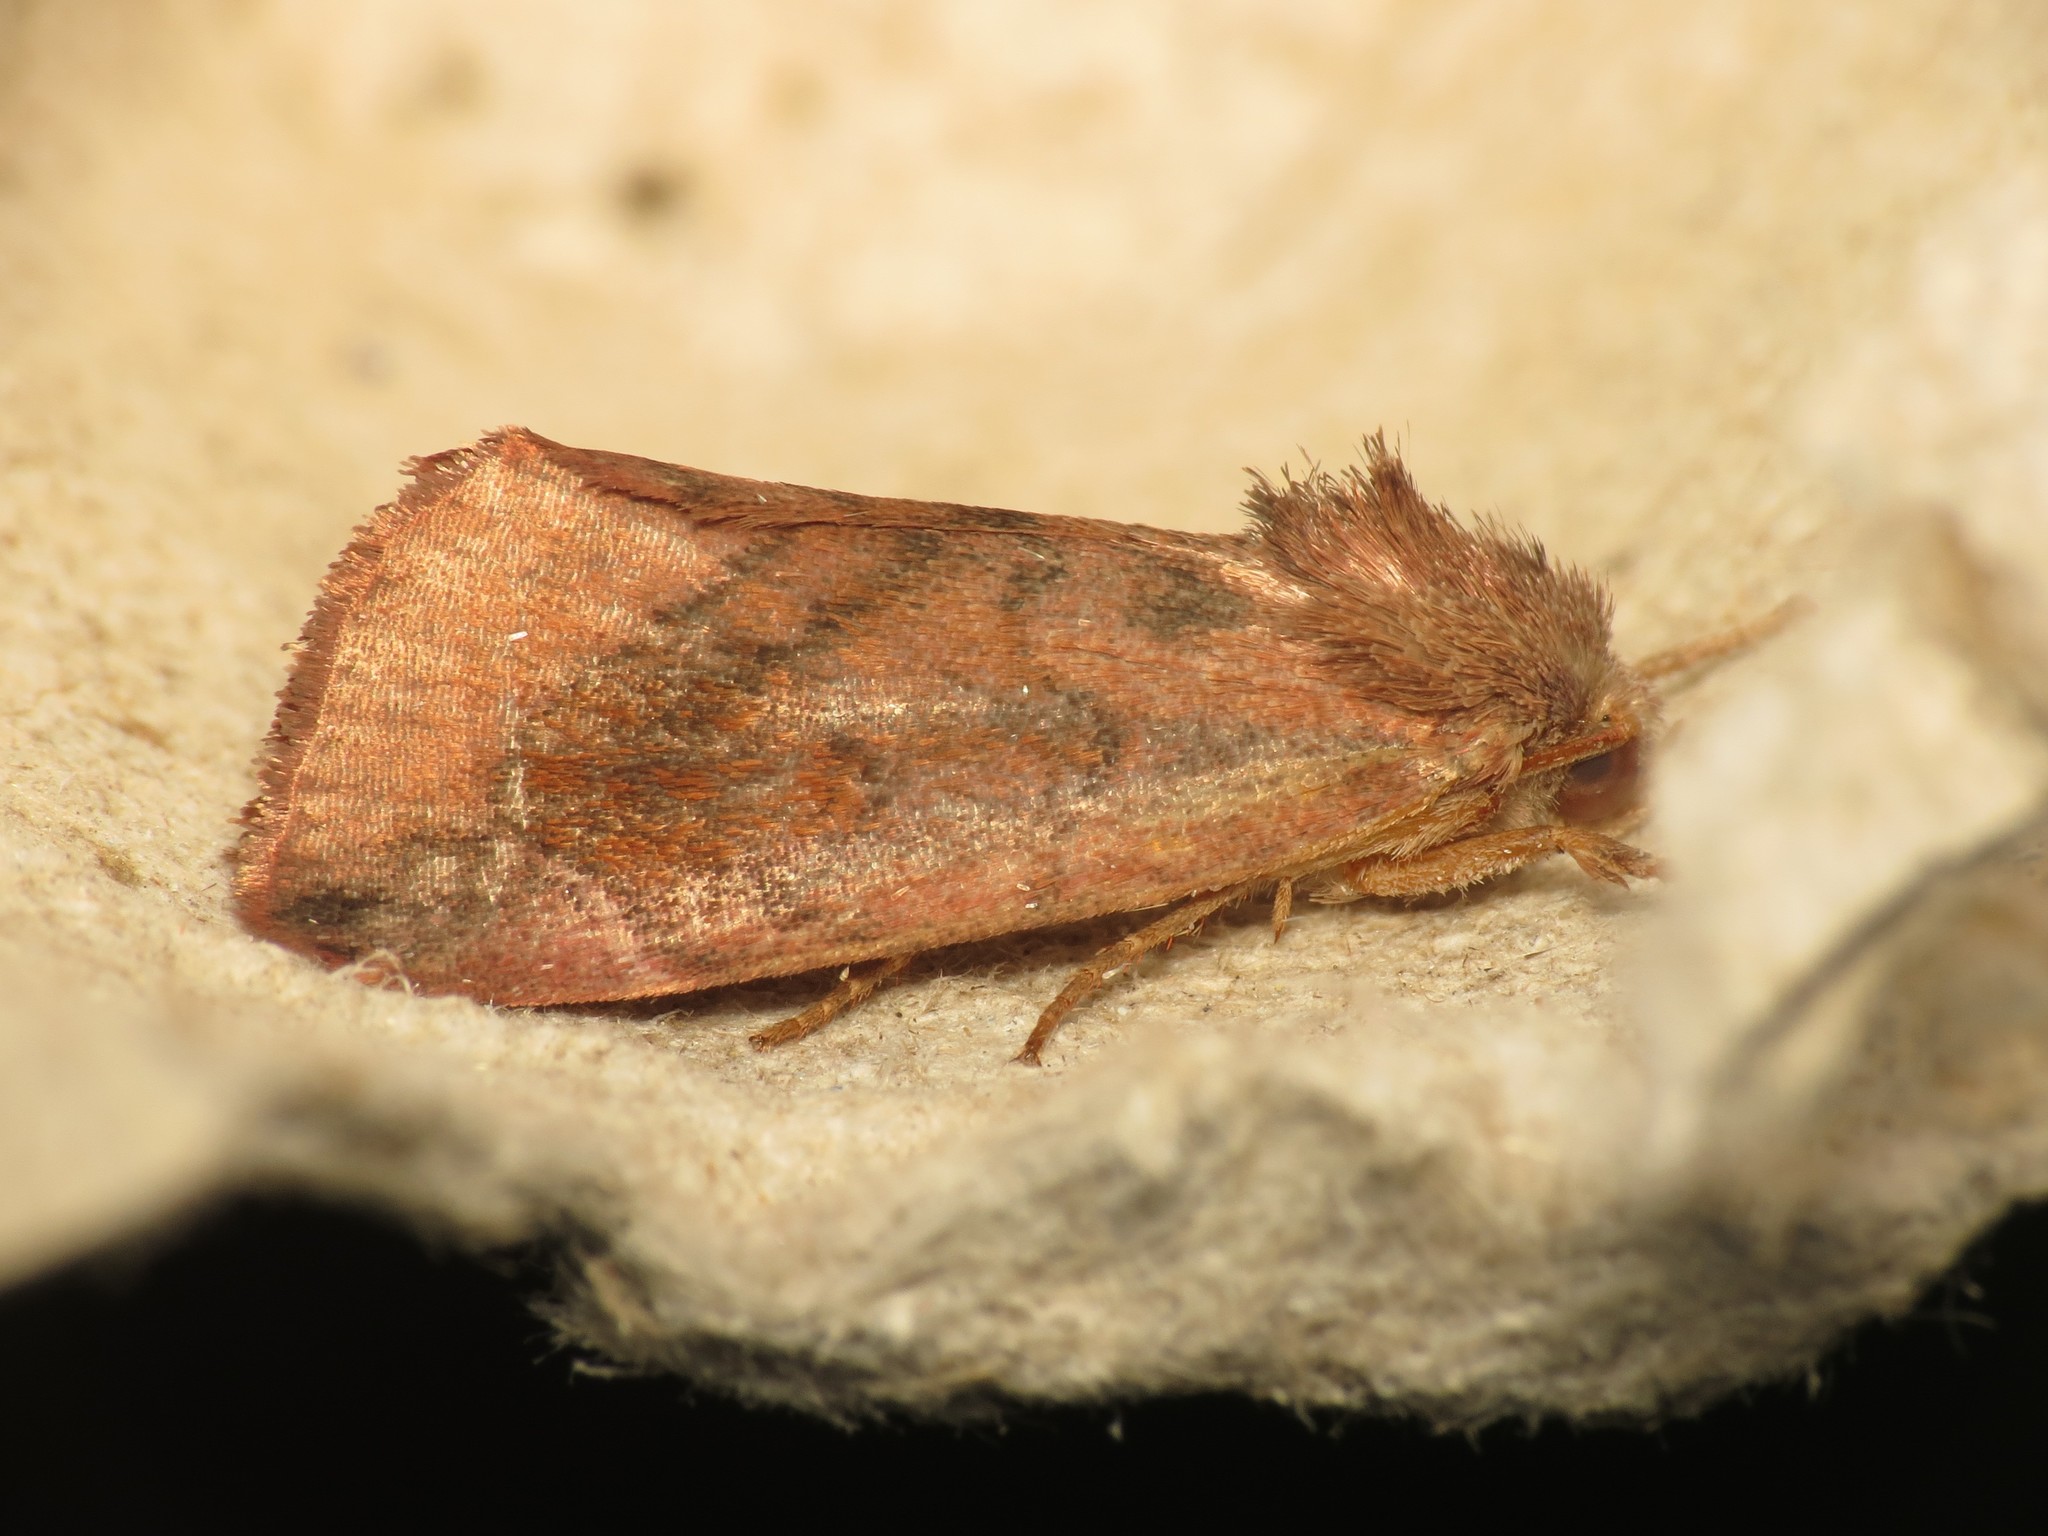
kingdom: Animalia
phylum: Arthropoda
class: Insecta
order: Lepidoptera
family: Noctuidae
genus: Cosmia
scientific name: Cosmia pyralina
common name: Lunar-spotted pinion
